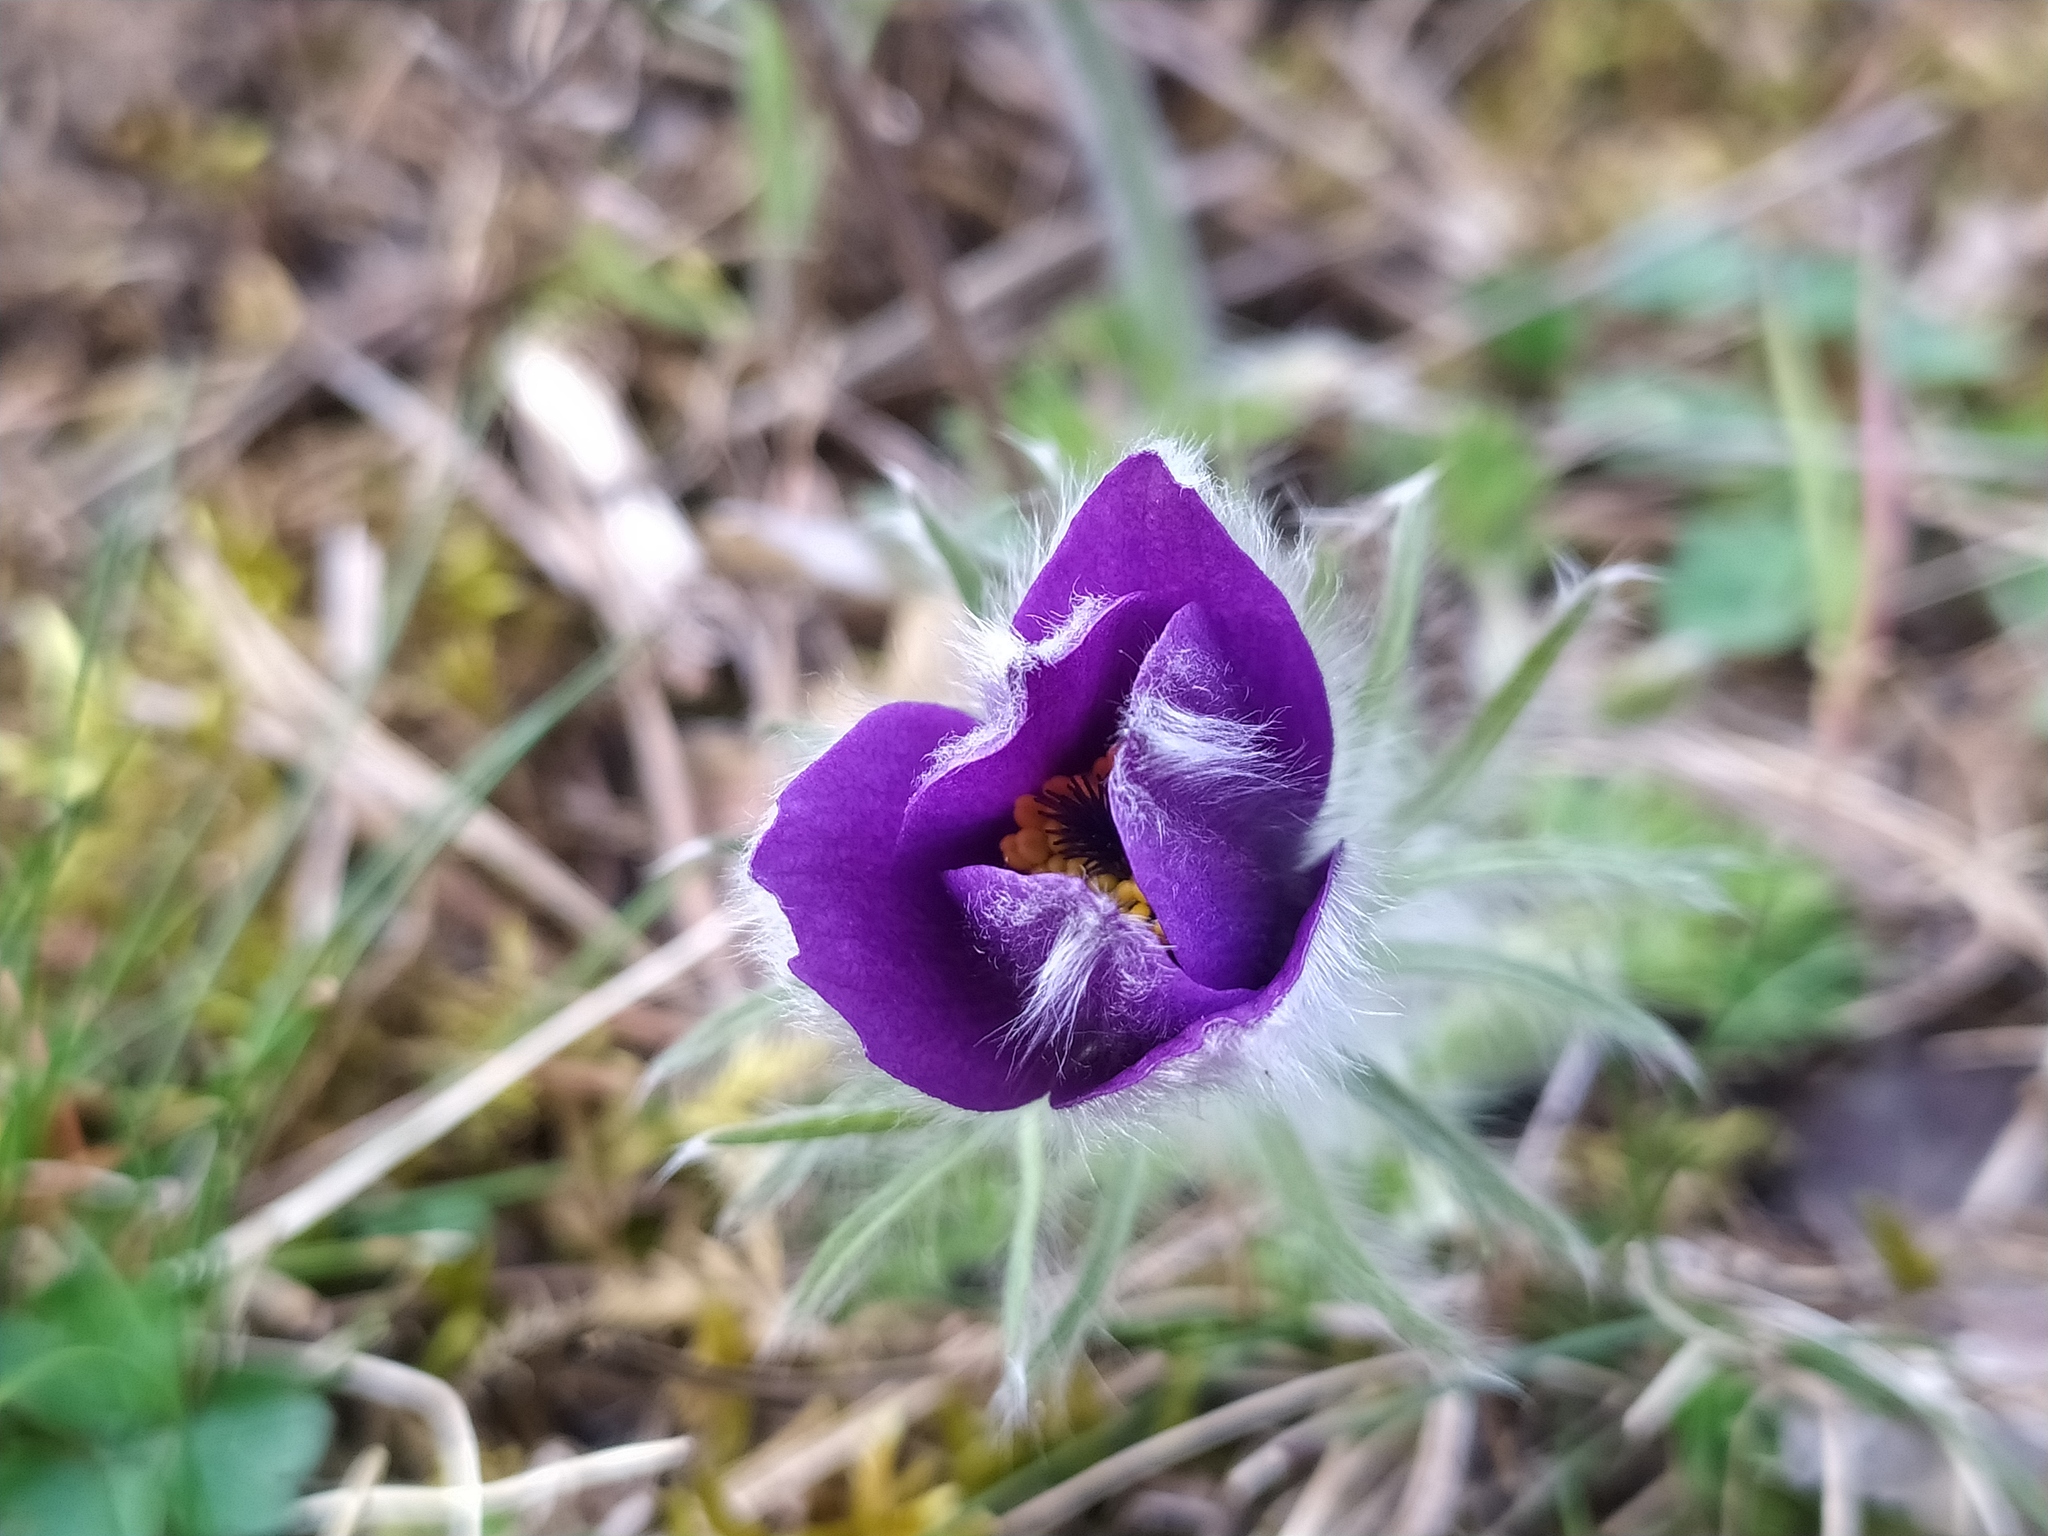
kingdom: Plantae
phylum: Tracheophyta
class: Magnoliopsida
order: Ranunculales
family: Ranunculaceae
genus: Pulsatilla
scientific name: Pulsatilla vulgaris
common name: Pasqueflower
